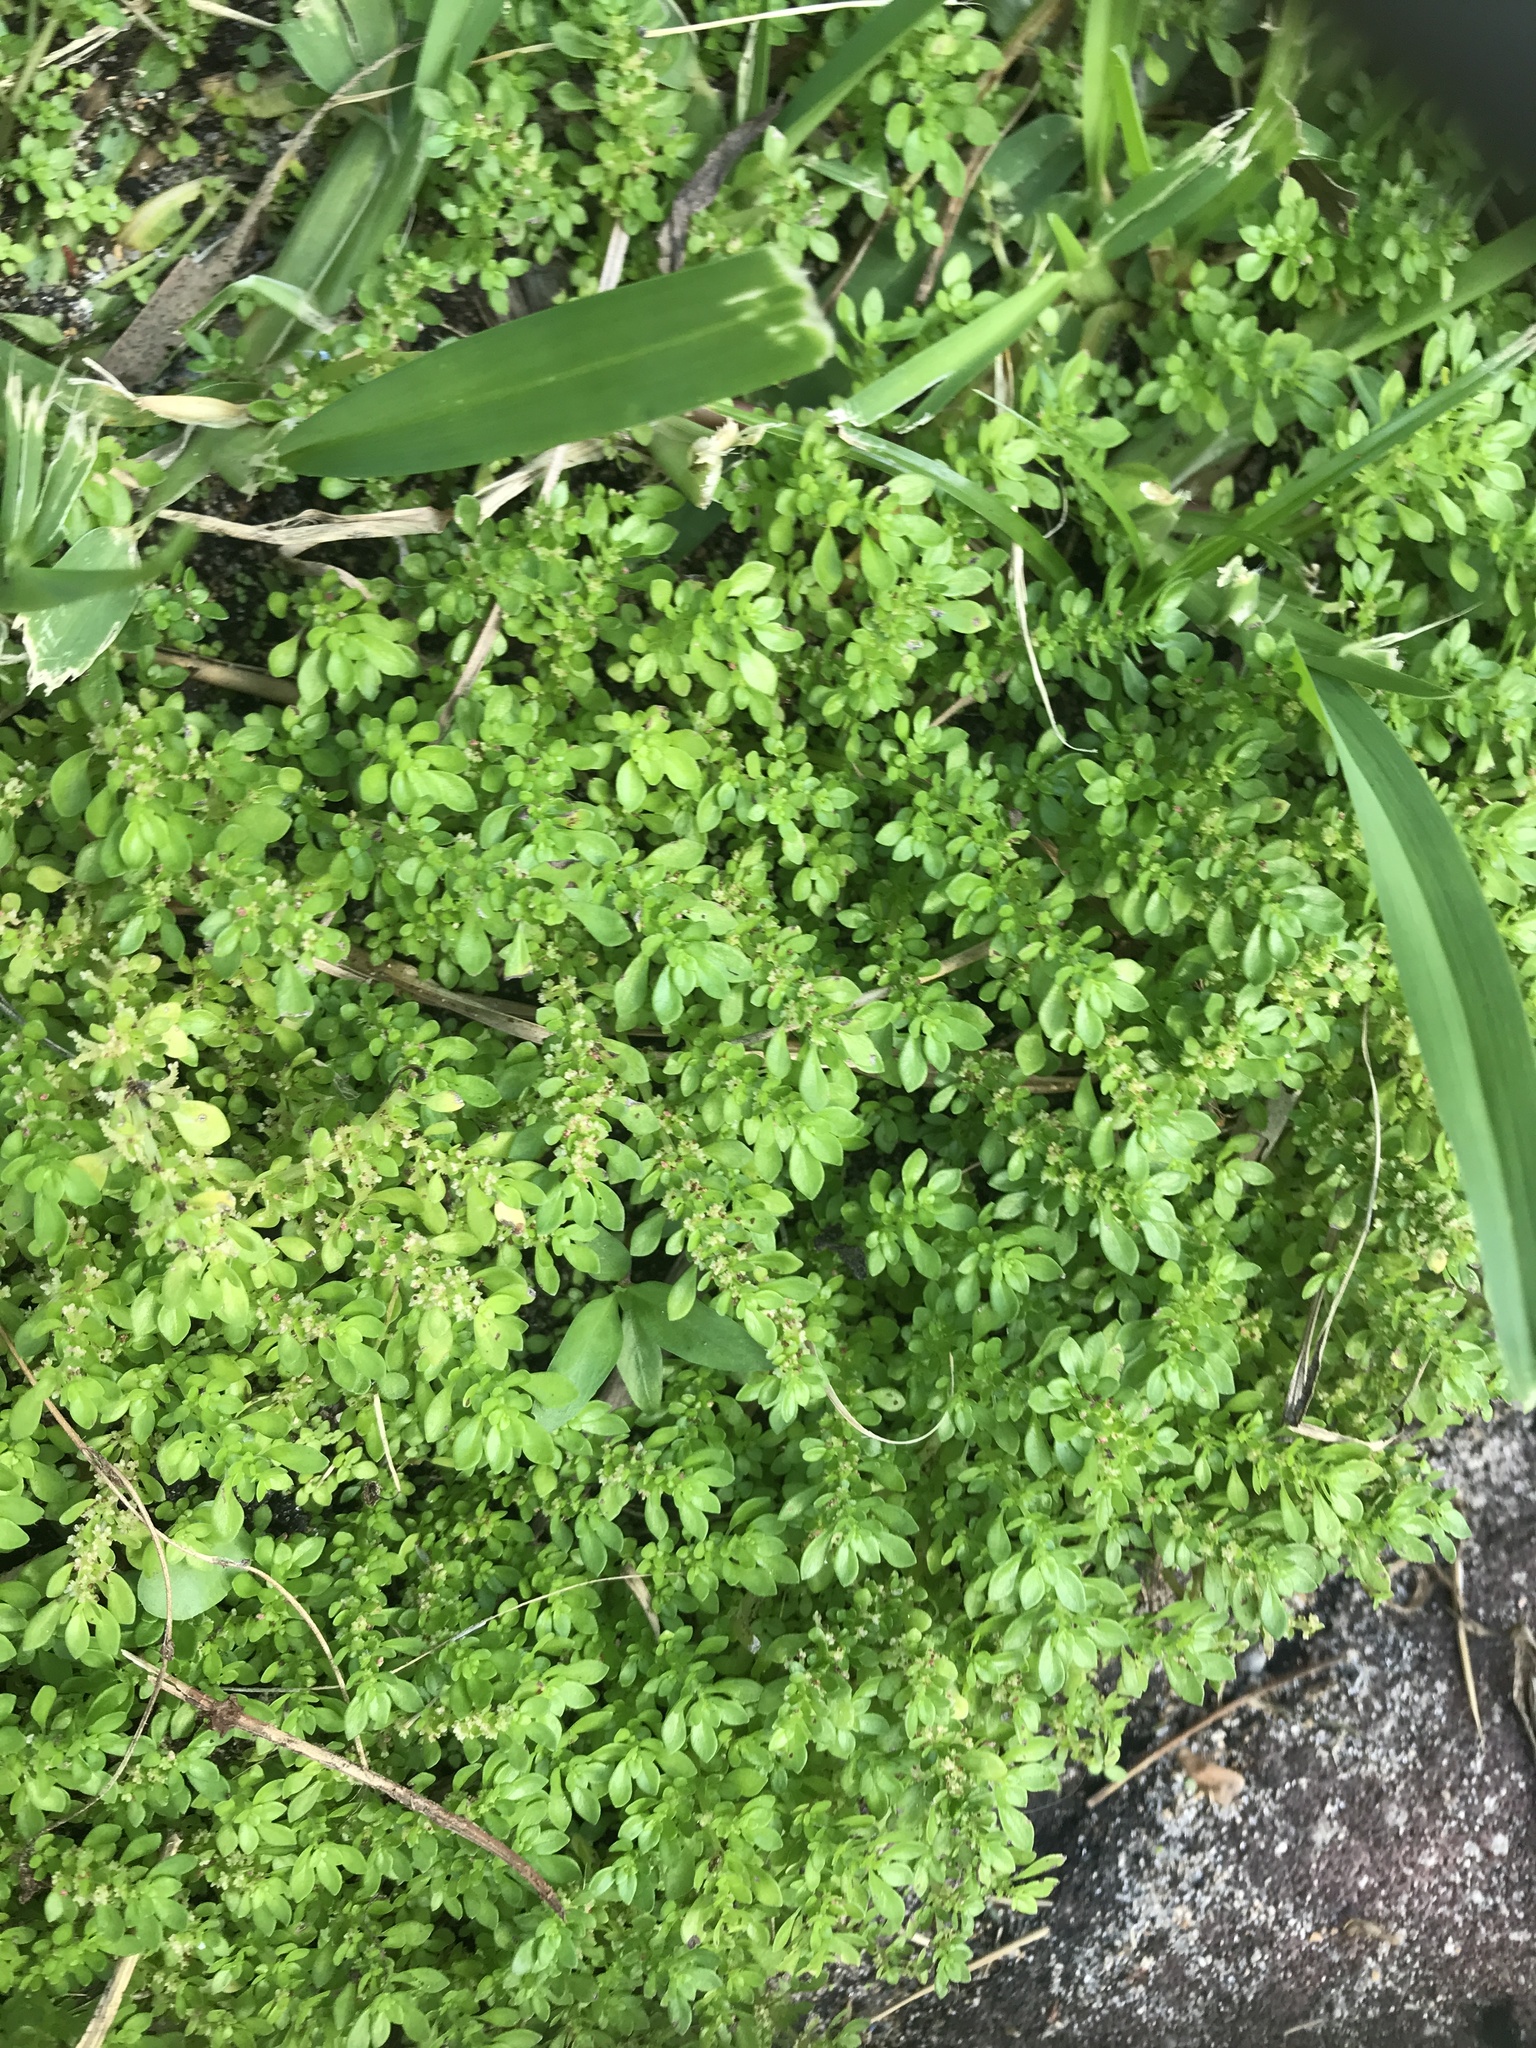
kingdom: Plantae
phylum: Tracheophyta
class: Magnoliopsida
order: Rosales
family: Urticaceae
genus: Pilea
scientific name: Pilea microphylla
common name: Artillery-plant
